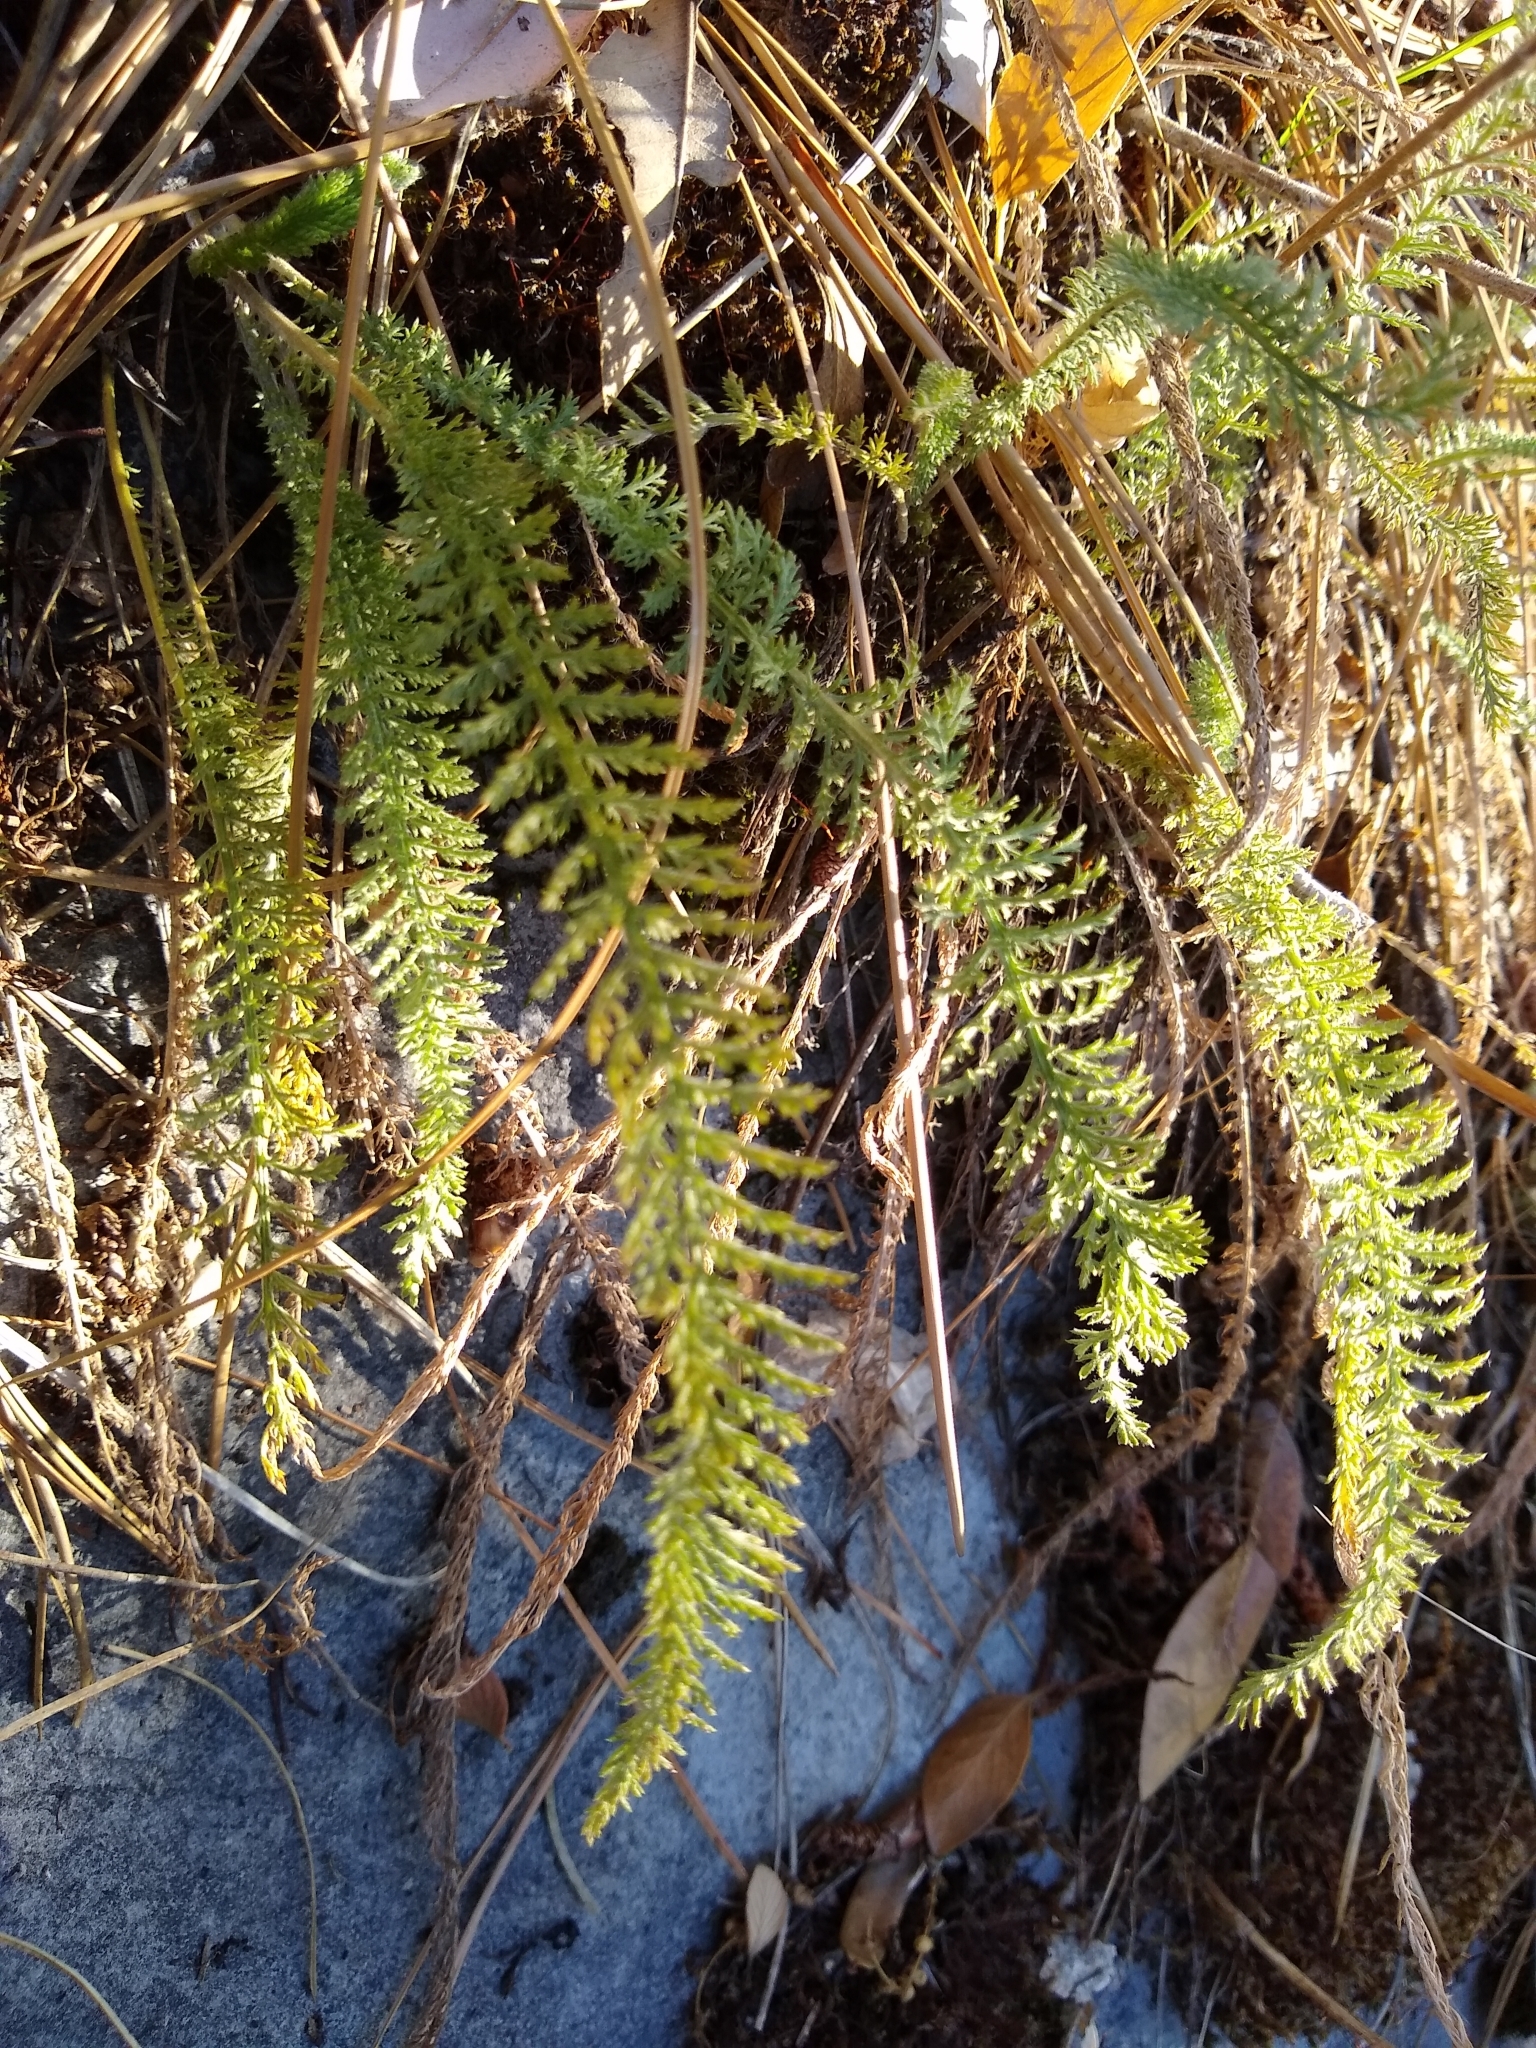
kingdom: Plantae
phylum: Tracheophyta
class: Magnoliopsida
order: Asterales
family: Asteraceae
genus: Achillea
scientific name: Achillea millefolium
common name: Yarrow
